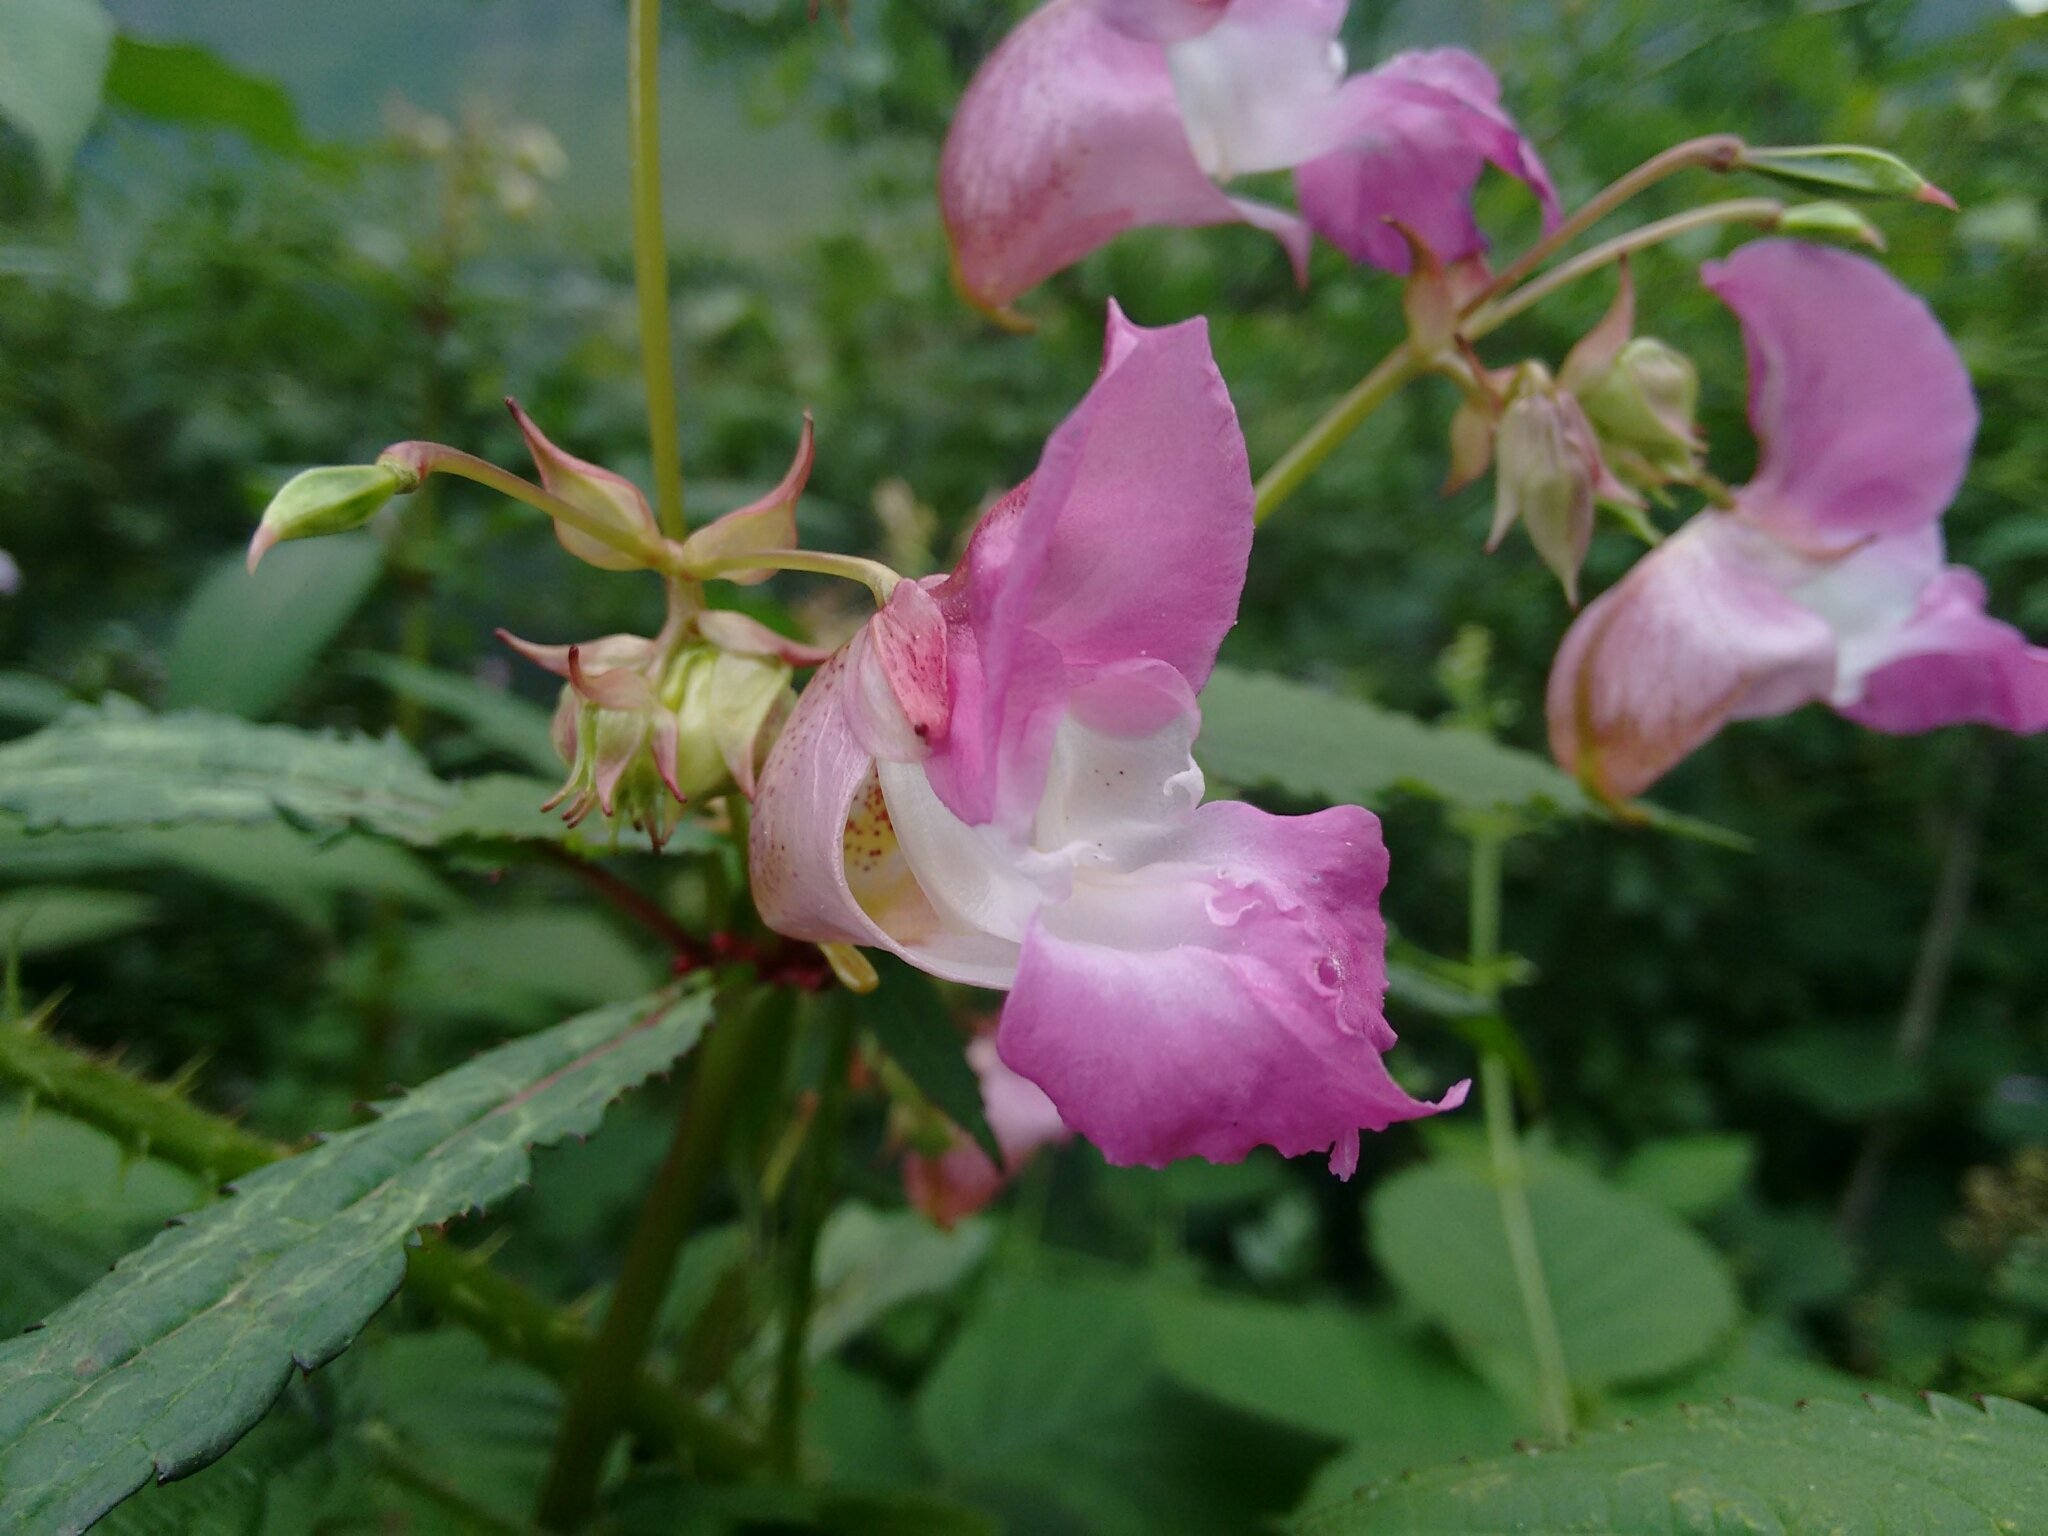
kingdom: Plantae
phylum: Tracheophyta
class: Magnoliopsida
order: Ericales
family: Balsaminaceae
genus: Impatiens
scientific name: Impatiens glandulifera
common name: Himalayan balsam
